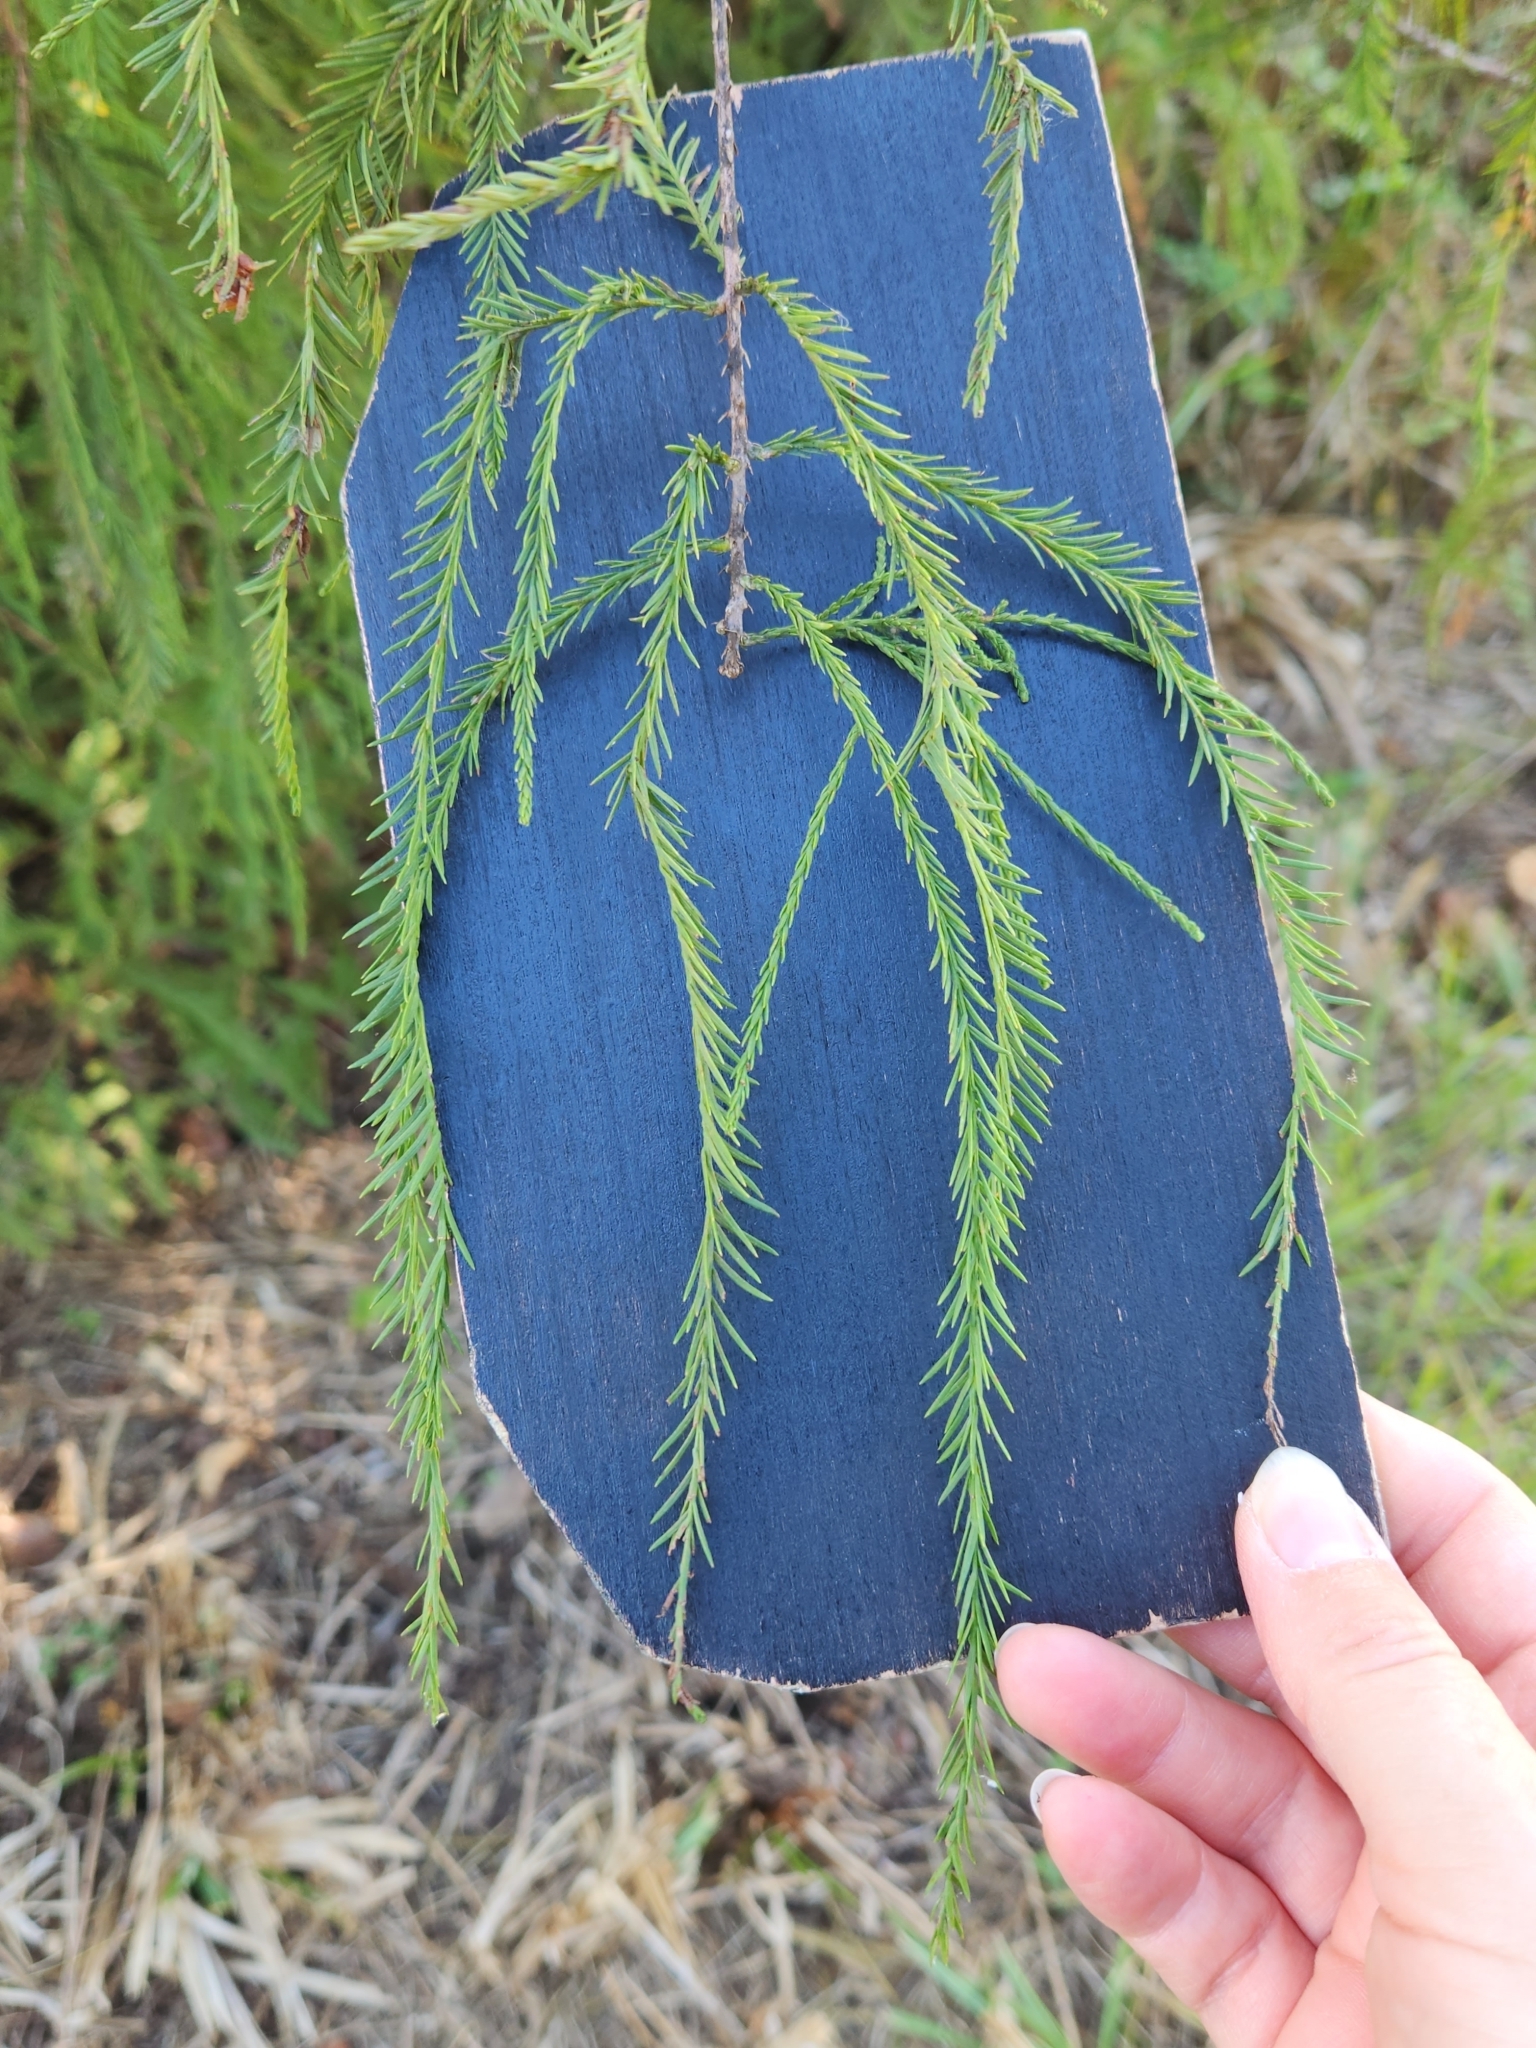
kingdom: Plantae
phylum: Tracheophyta
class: Pinopsida
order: Pinales
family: Cupressaceae
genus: Taxodium
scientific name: Taxodium distichum
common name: Bald cypress
